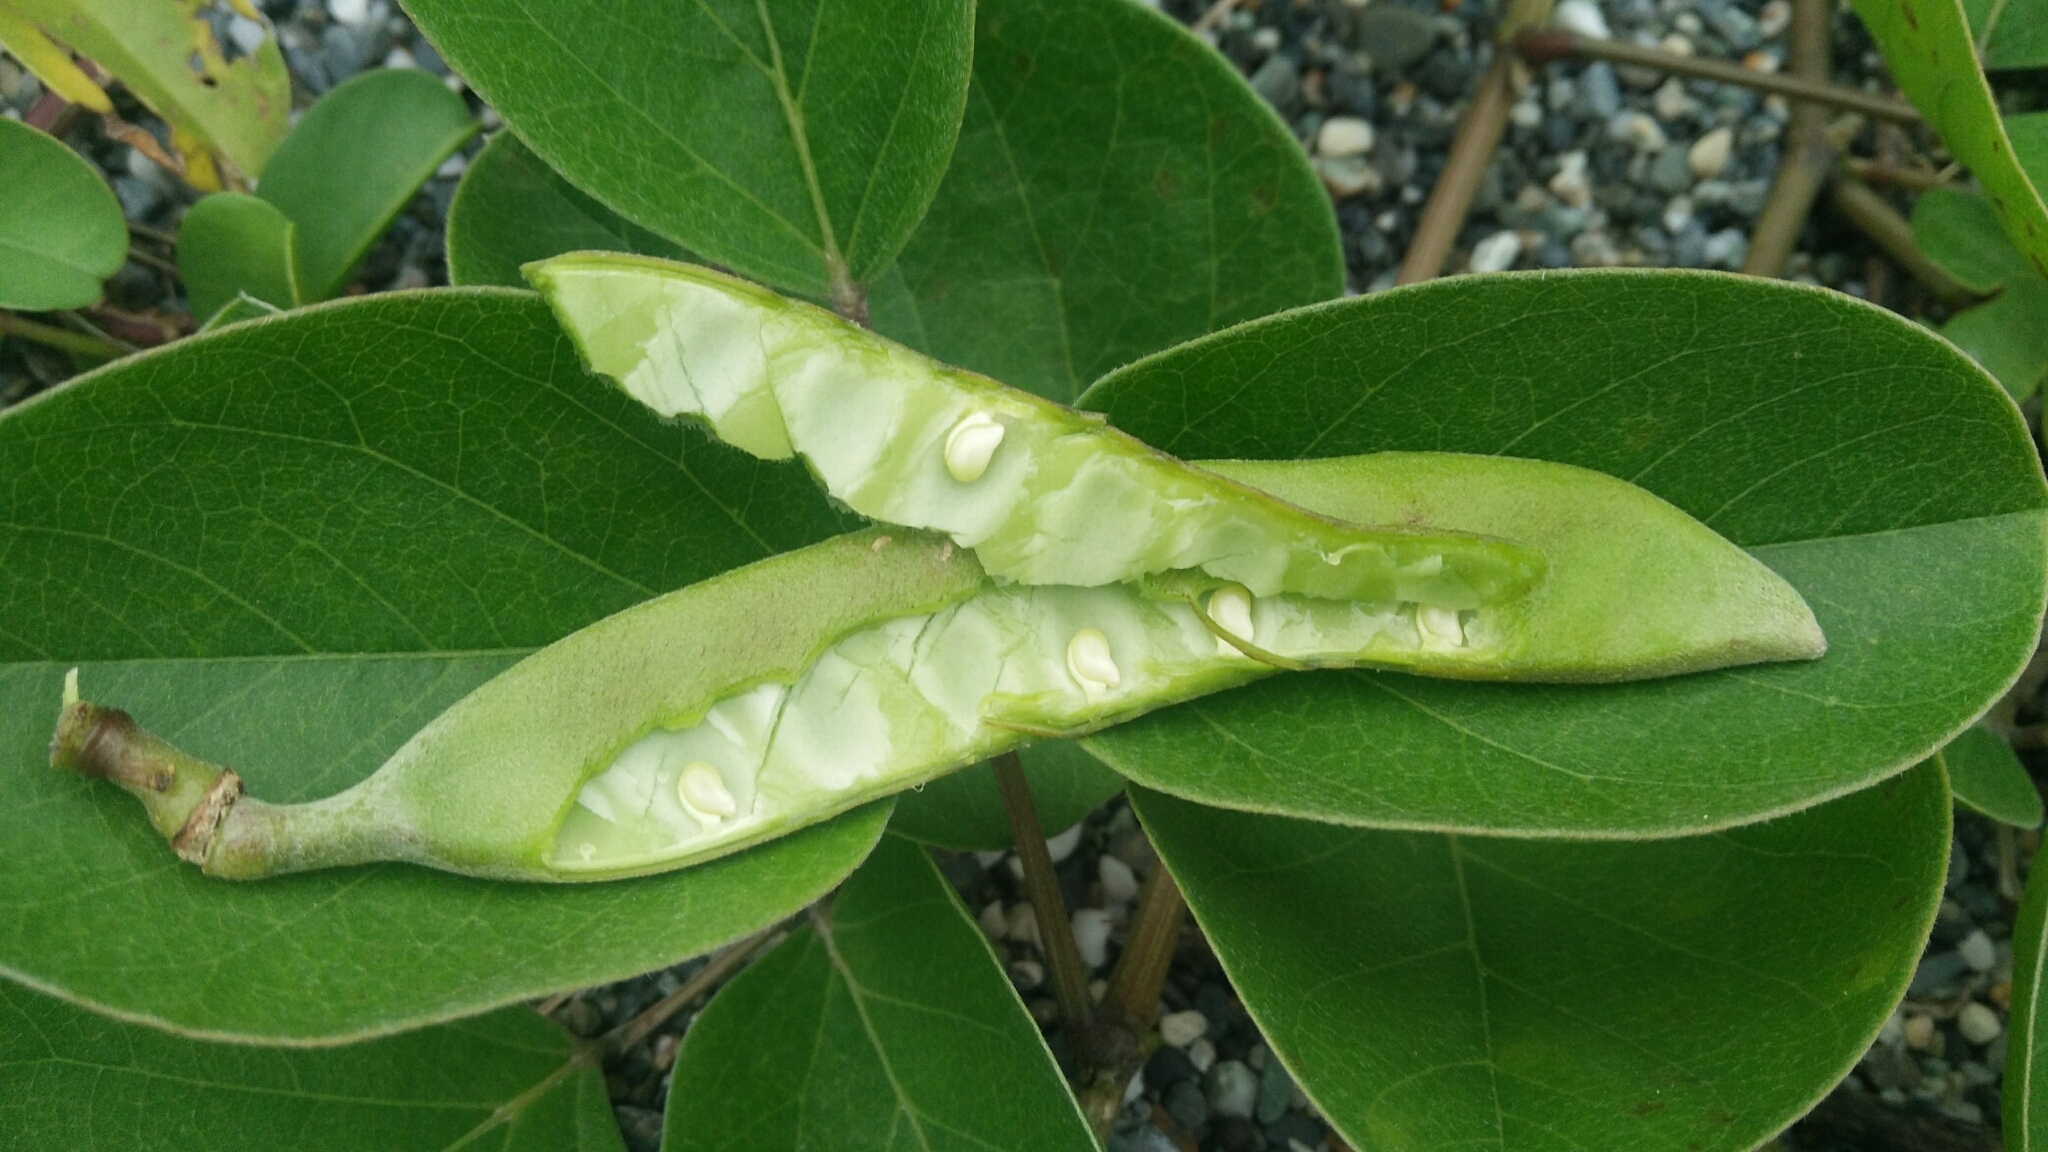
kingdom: Plantae
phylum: Tracheophyta
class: Magnoliopsida
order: Fabales
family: Fabaceae
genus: Canavalia
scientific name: Canavalia rosea
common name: Beach-bean
